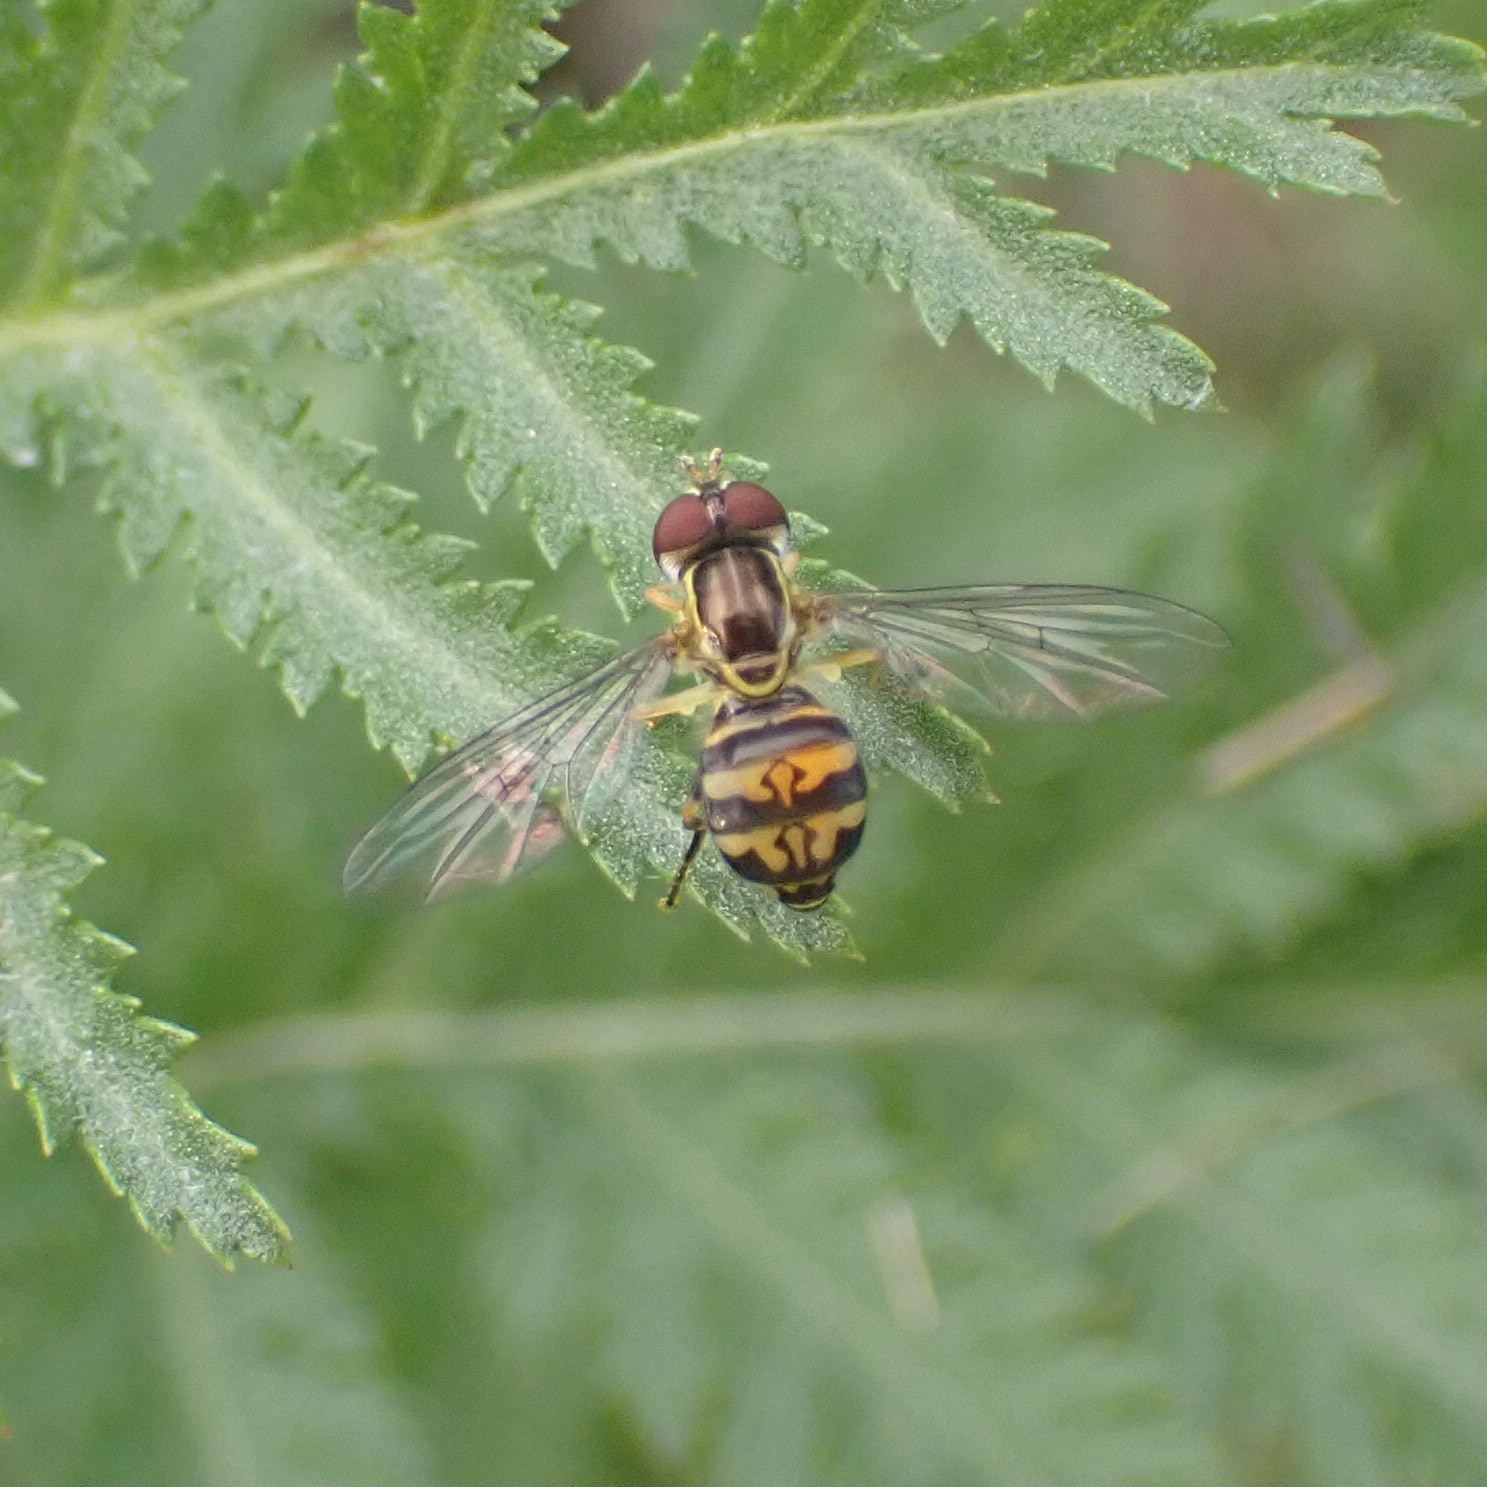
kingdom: Animalia
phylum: Arthropoda
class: Insecta
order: Diptera
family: Syrphidae
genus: Toxomerus
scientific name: Toxomerus occidentalis
